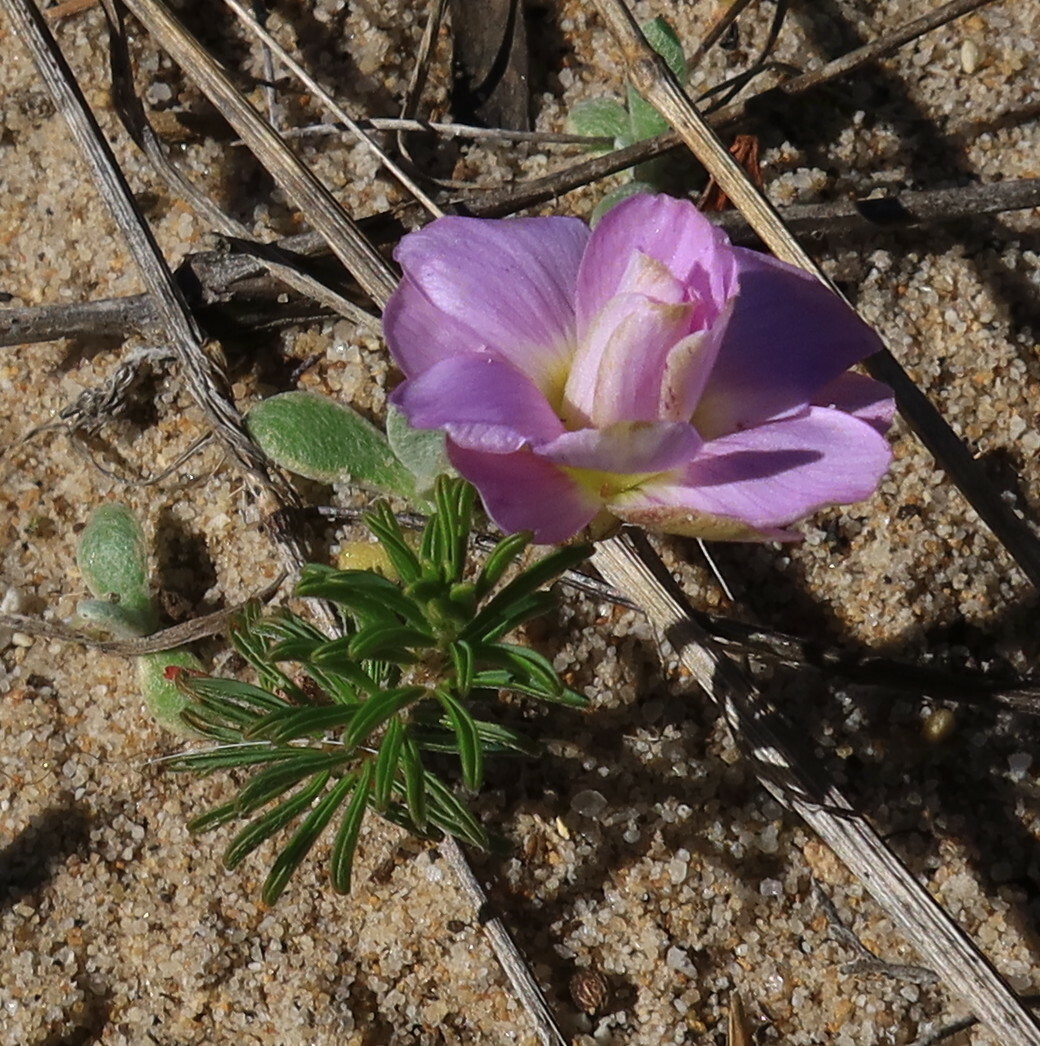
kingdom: Plantae
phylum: Tracheophyta
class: Magnoliopsida
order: Oxalidales
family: Oxalidaceae
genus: Oxalis
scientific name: Oxalis hirta
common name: Tropical woodsorrel
